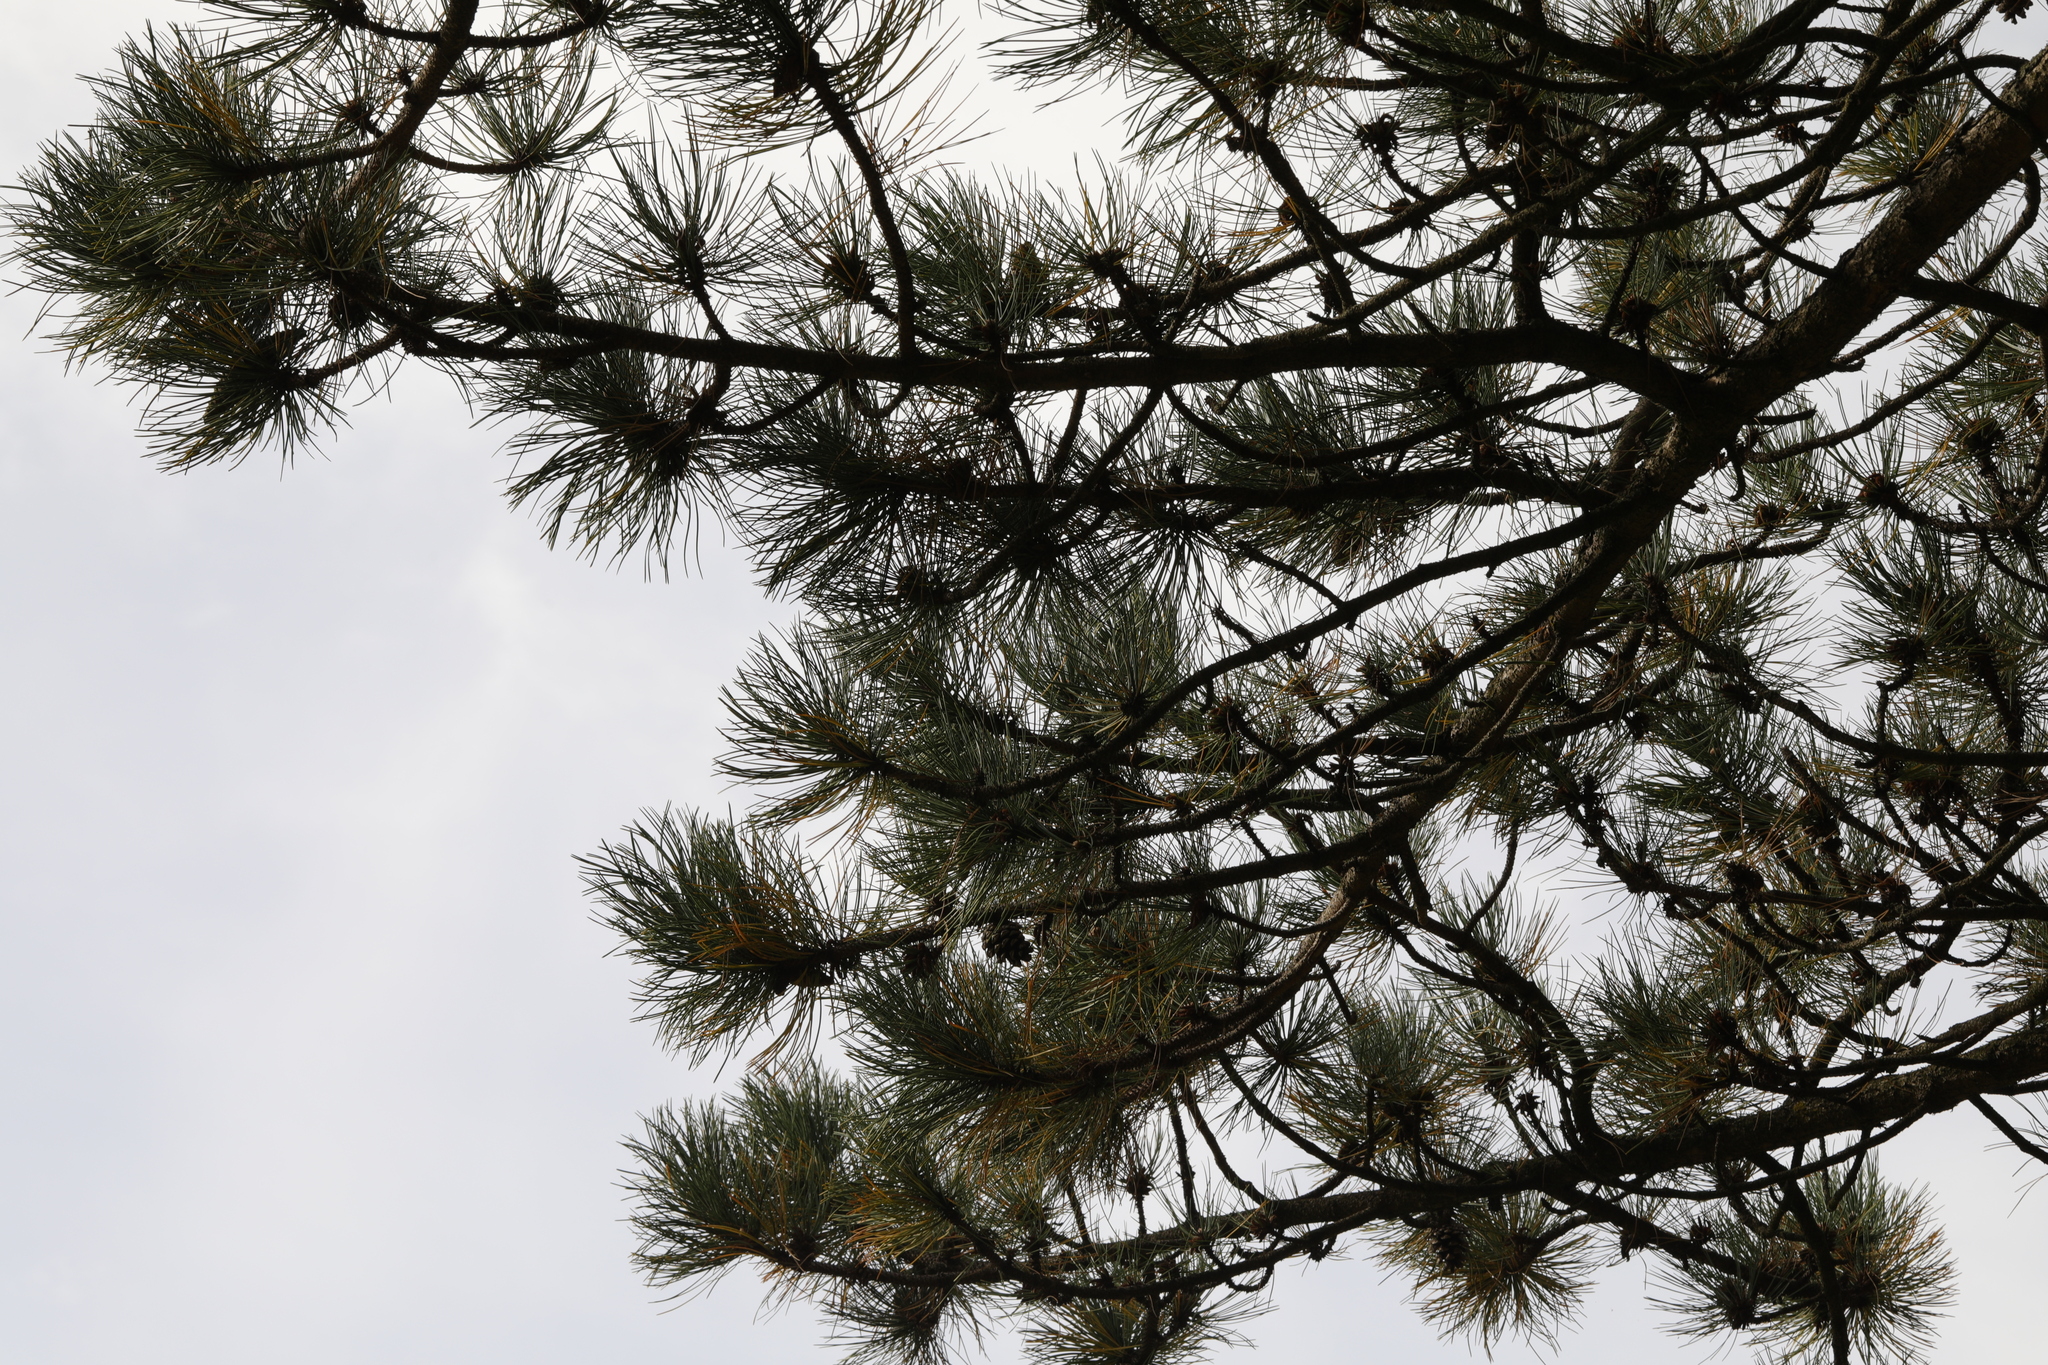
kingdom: Plantae
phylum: Tracheophyta
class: Pinopsida
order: Pinales
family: Pinaceae
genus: Pinus
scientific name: Pinus sylvestris
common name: Scots pine
